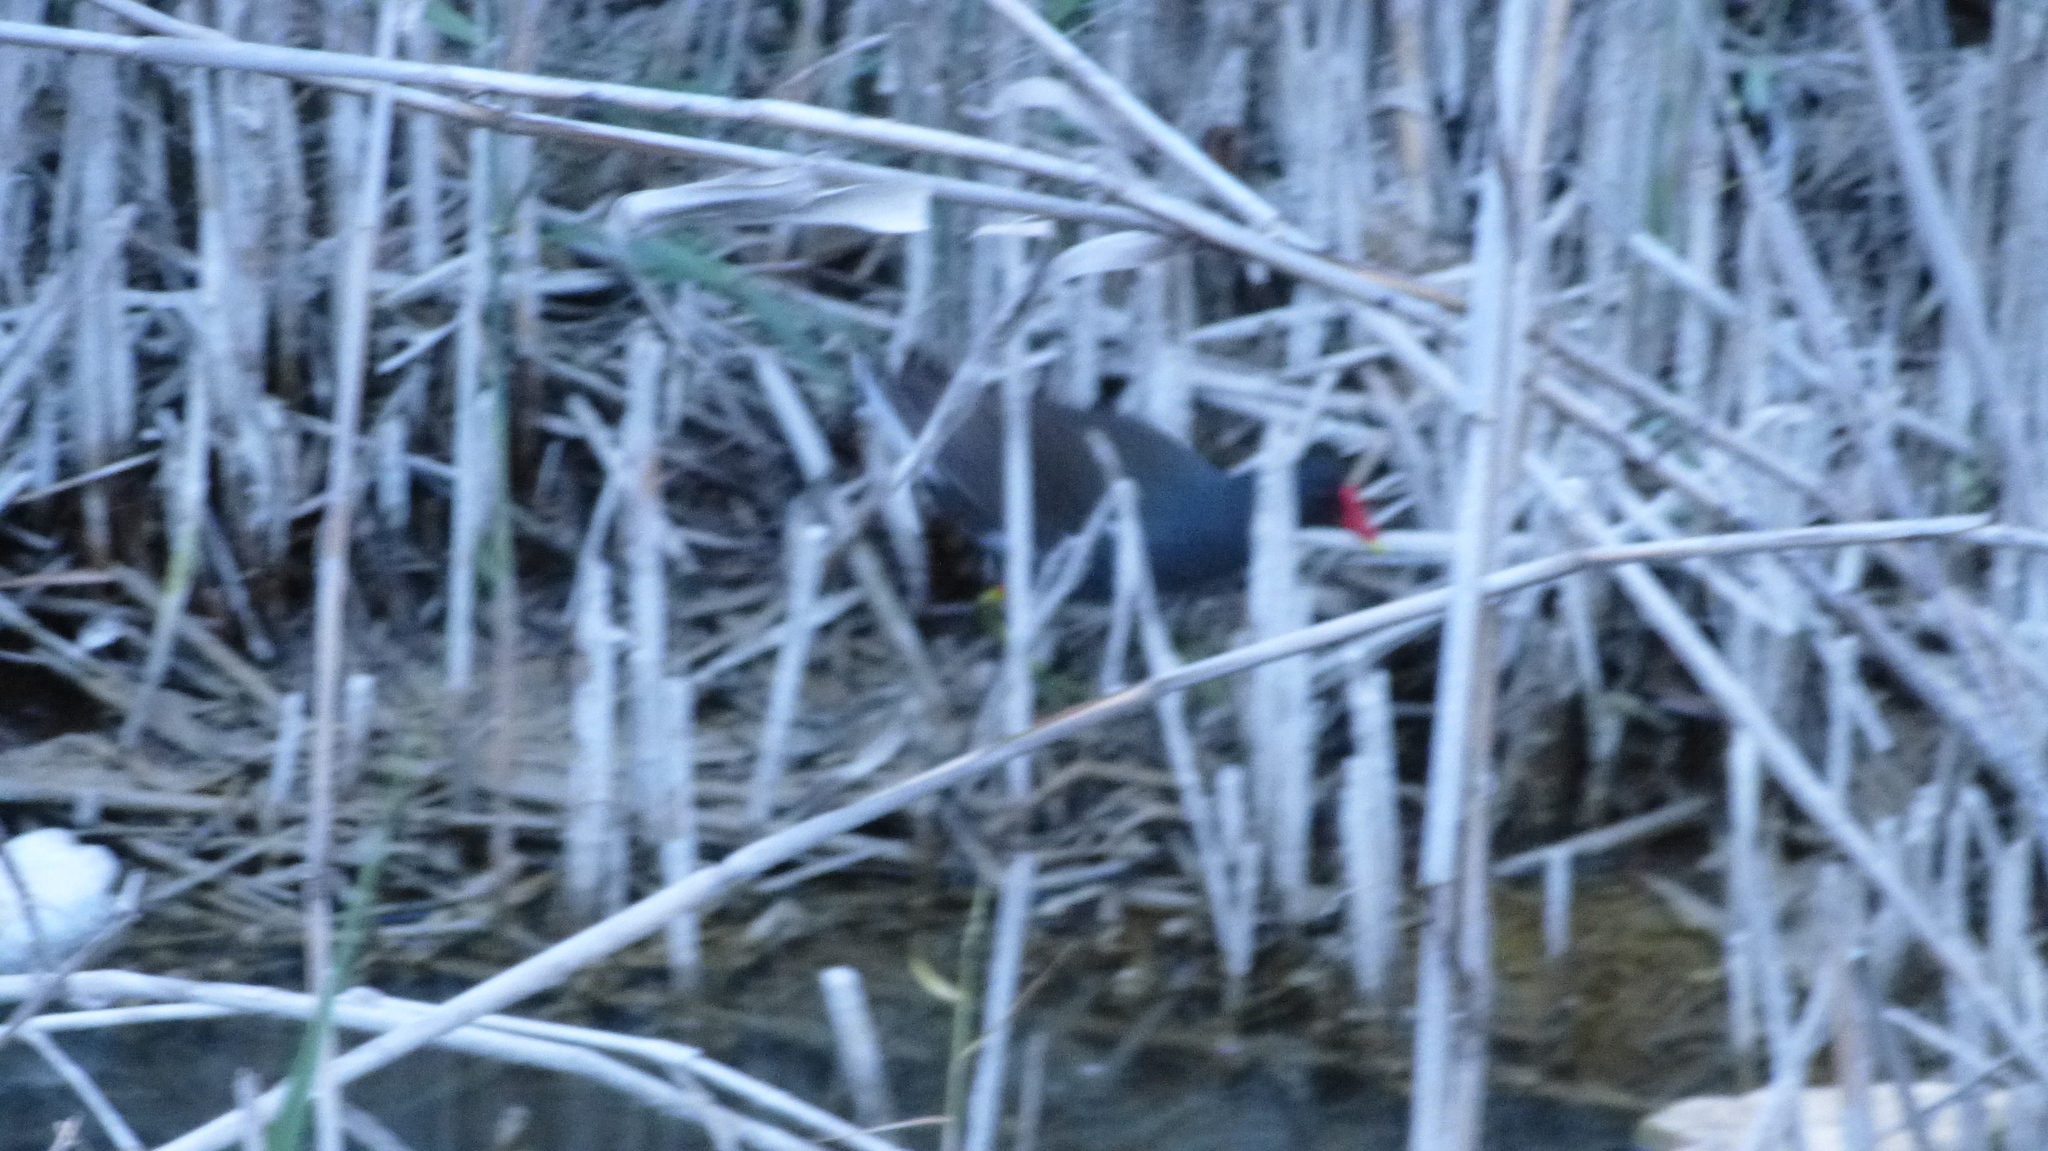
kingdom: Animalia
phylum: Chordata
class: Aves
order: Gruiformes
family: Rallidae
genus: Gallinula
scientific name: Gallinula chloropus
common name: Common moorhen
